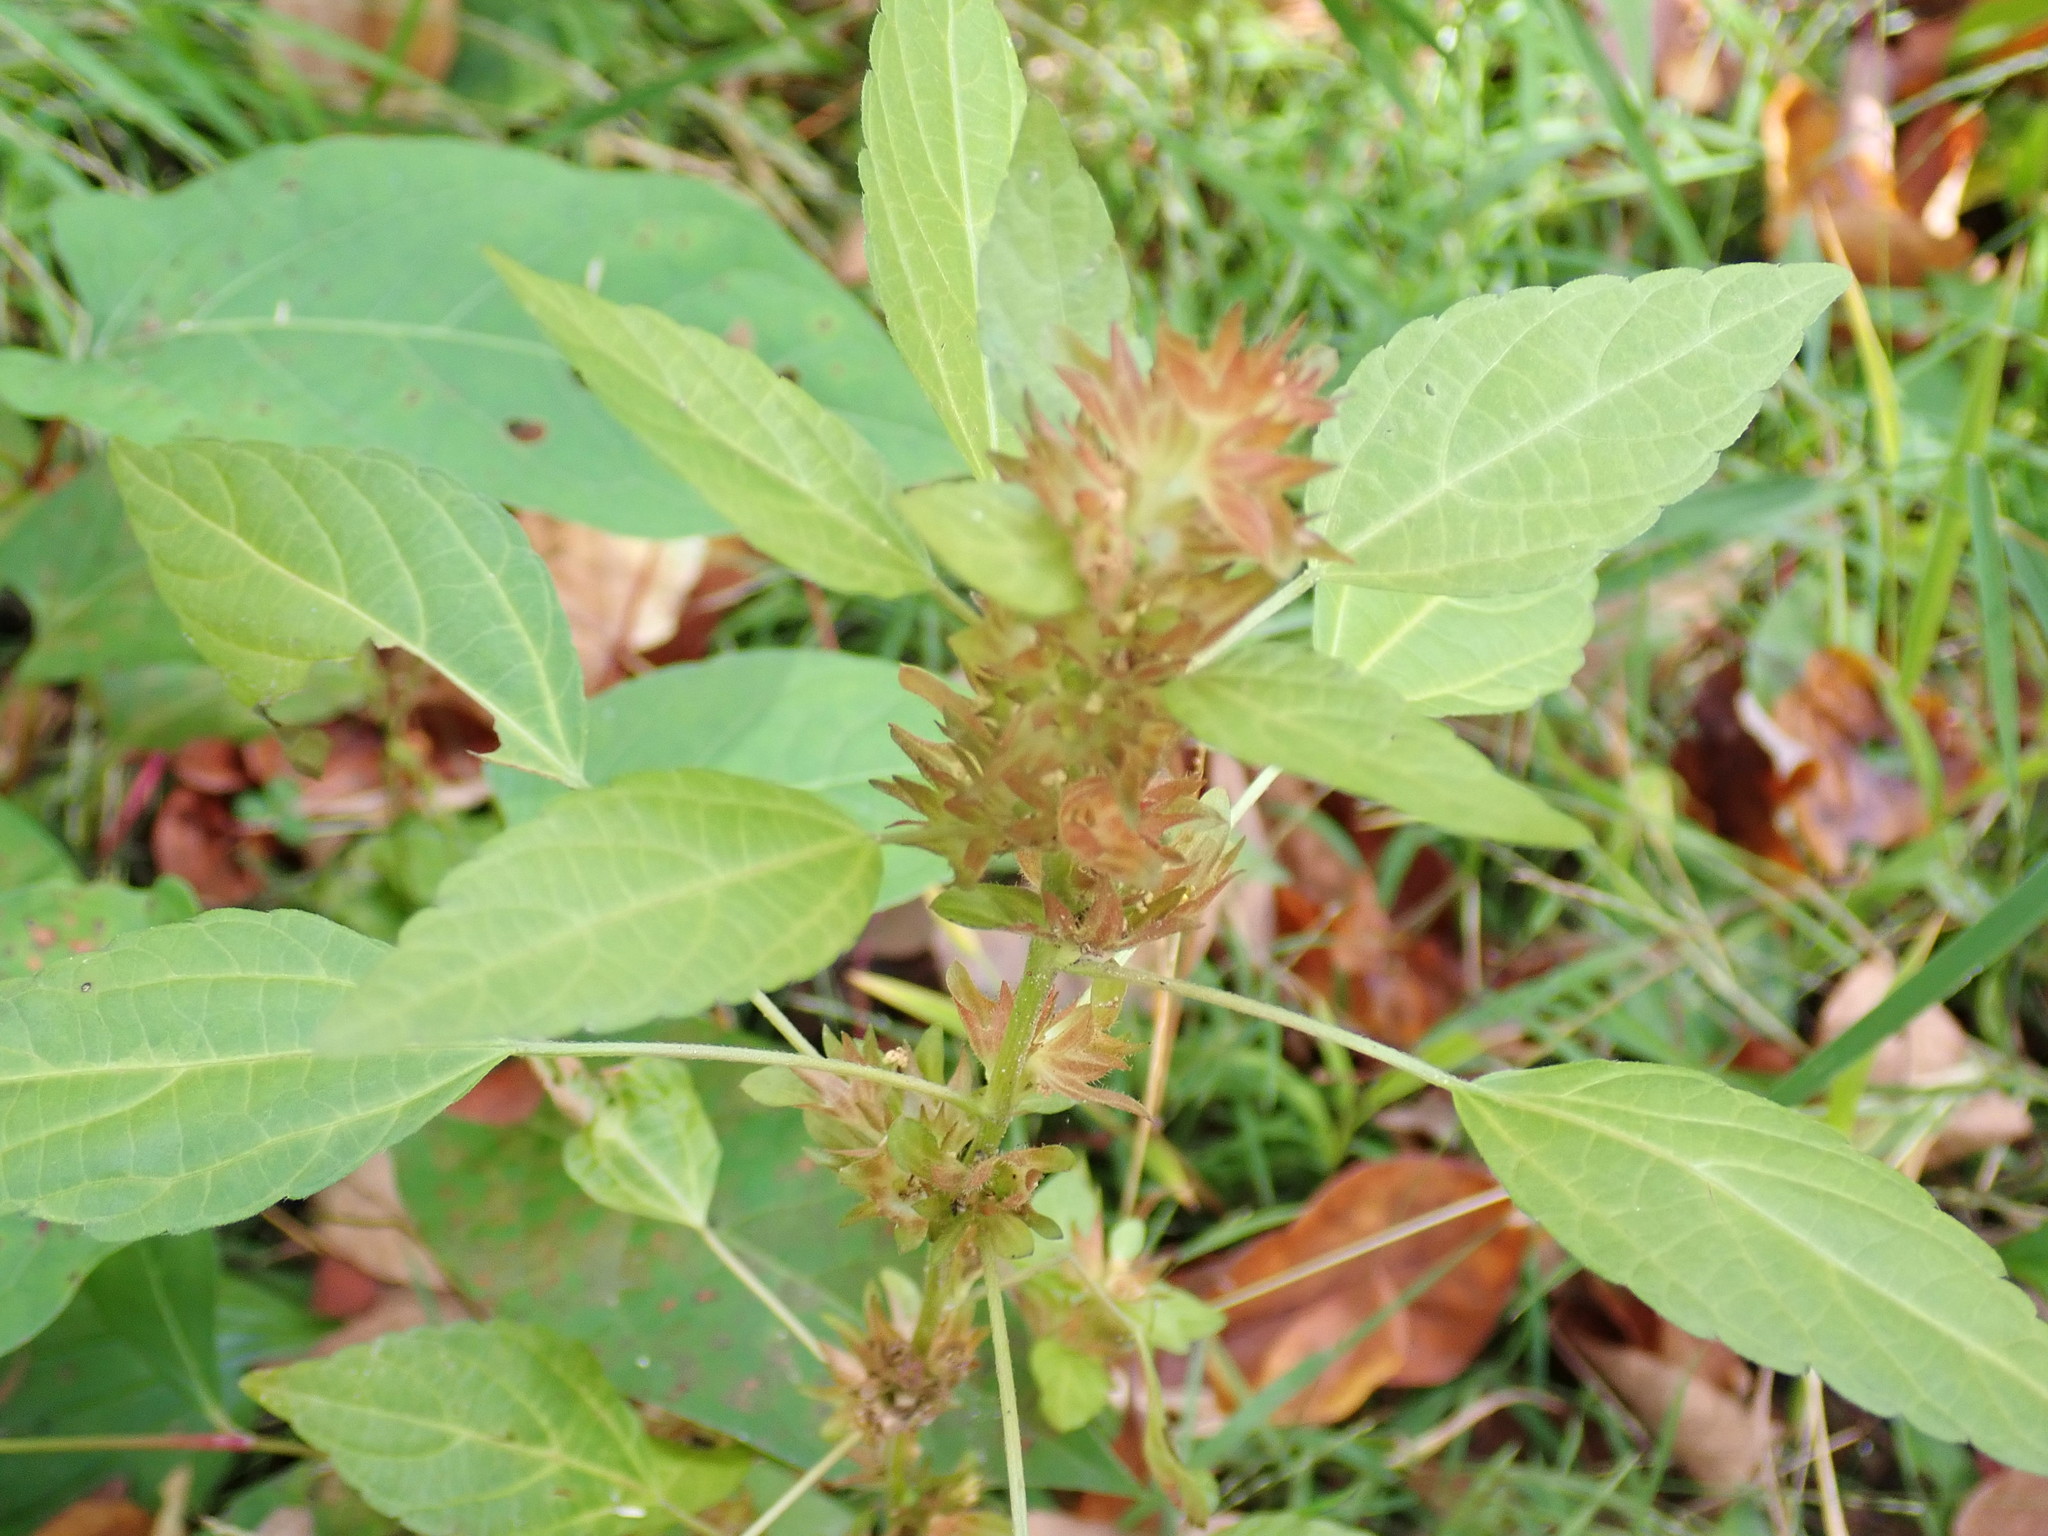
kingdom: Plantae
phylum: Tracheophyta
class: Magnoliopsida
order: Malpighiales
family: Euphorbiaceae
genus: Acalypha
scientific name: Acalypha rhomboidea
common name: Rhombic copperleaf
